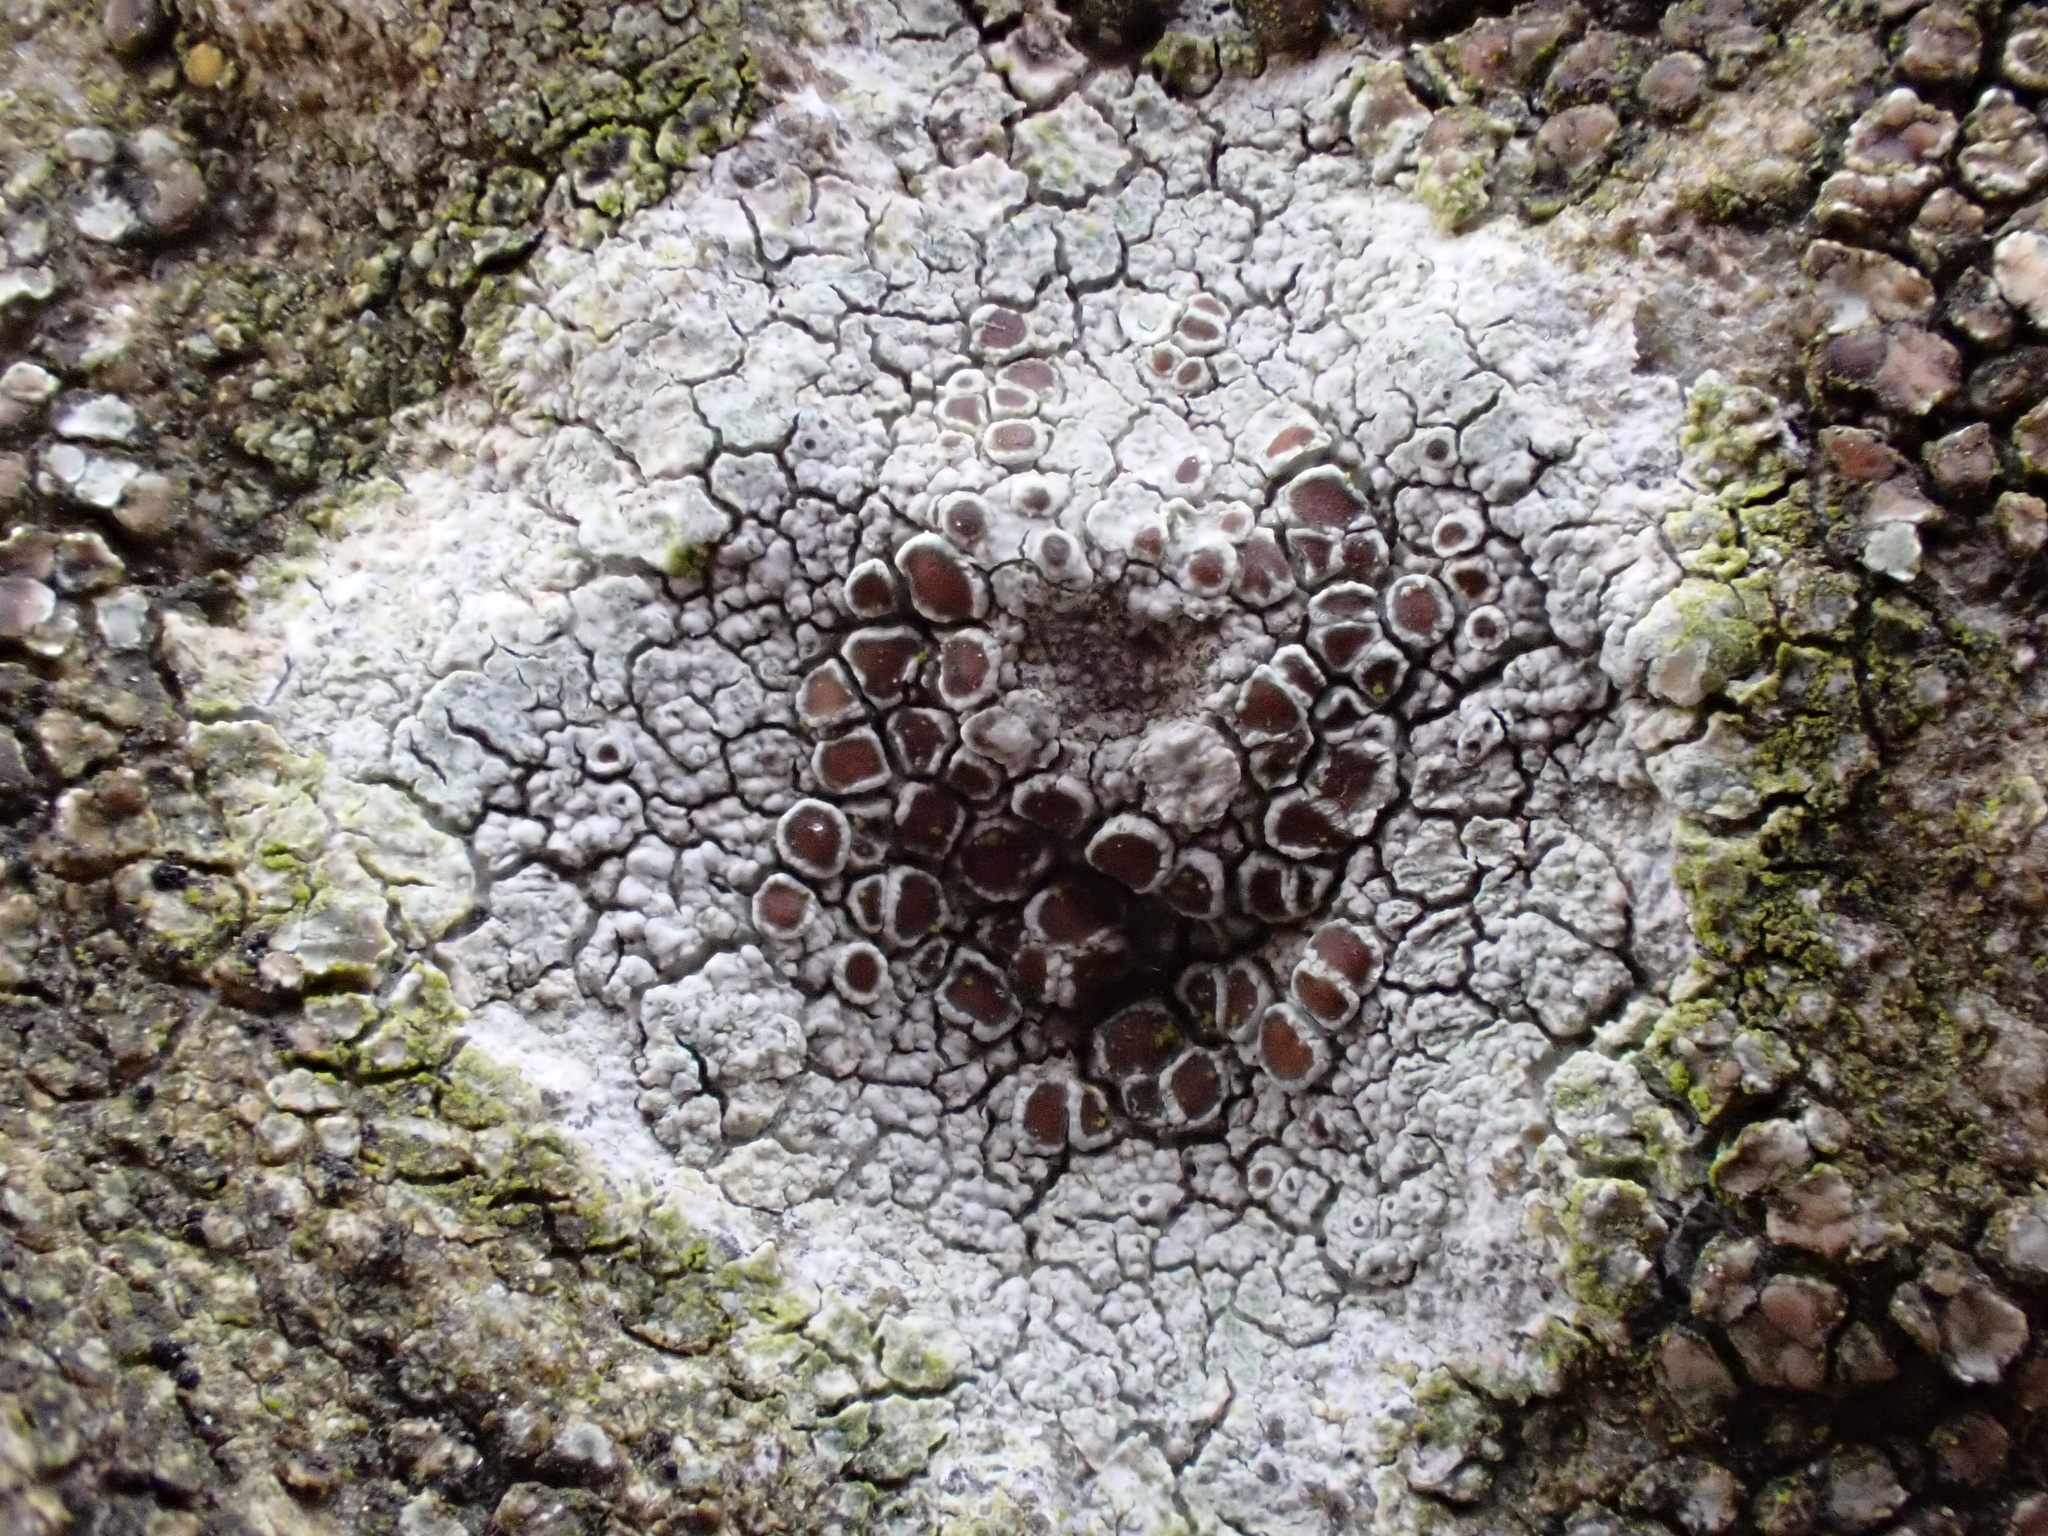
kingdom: Fungi
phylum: Ascomycota
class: Lecanoromycetes
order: Lecanorales
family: Lecanoraceae
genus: Lecanora
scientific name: Lecanora campestris
